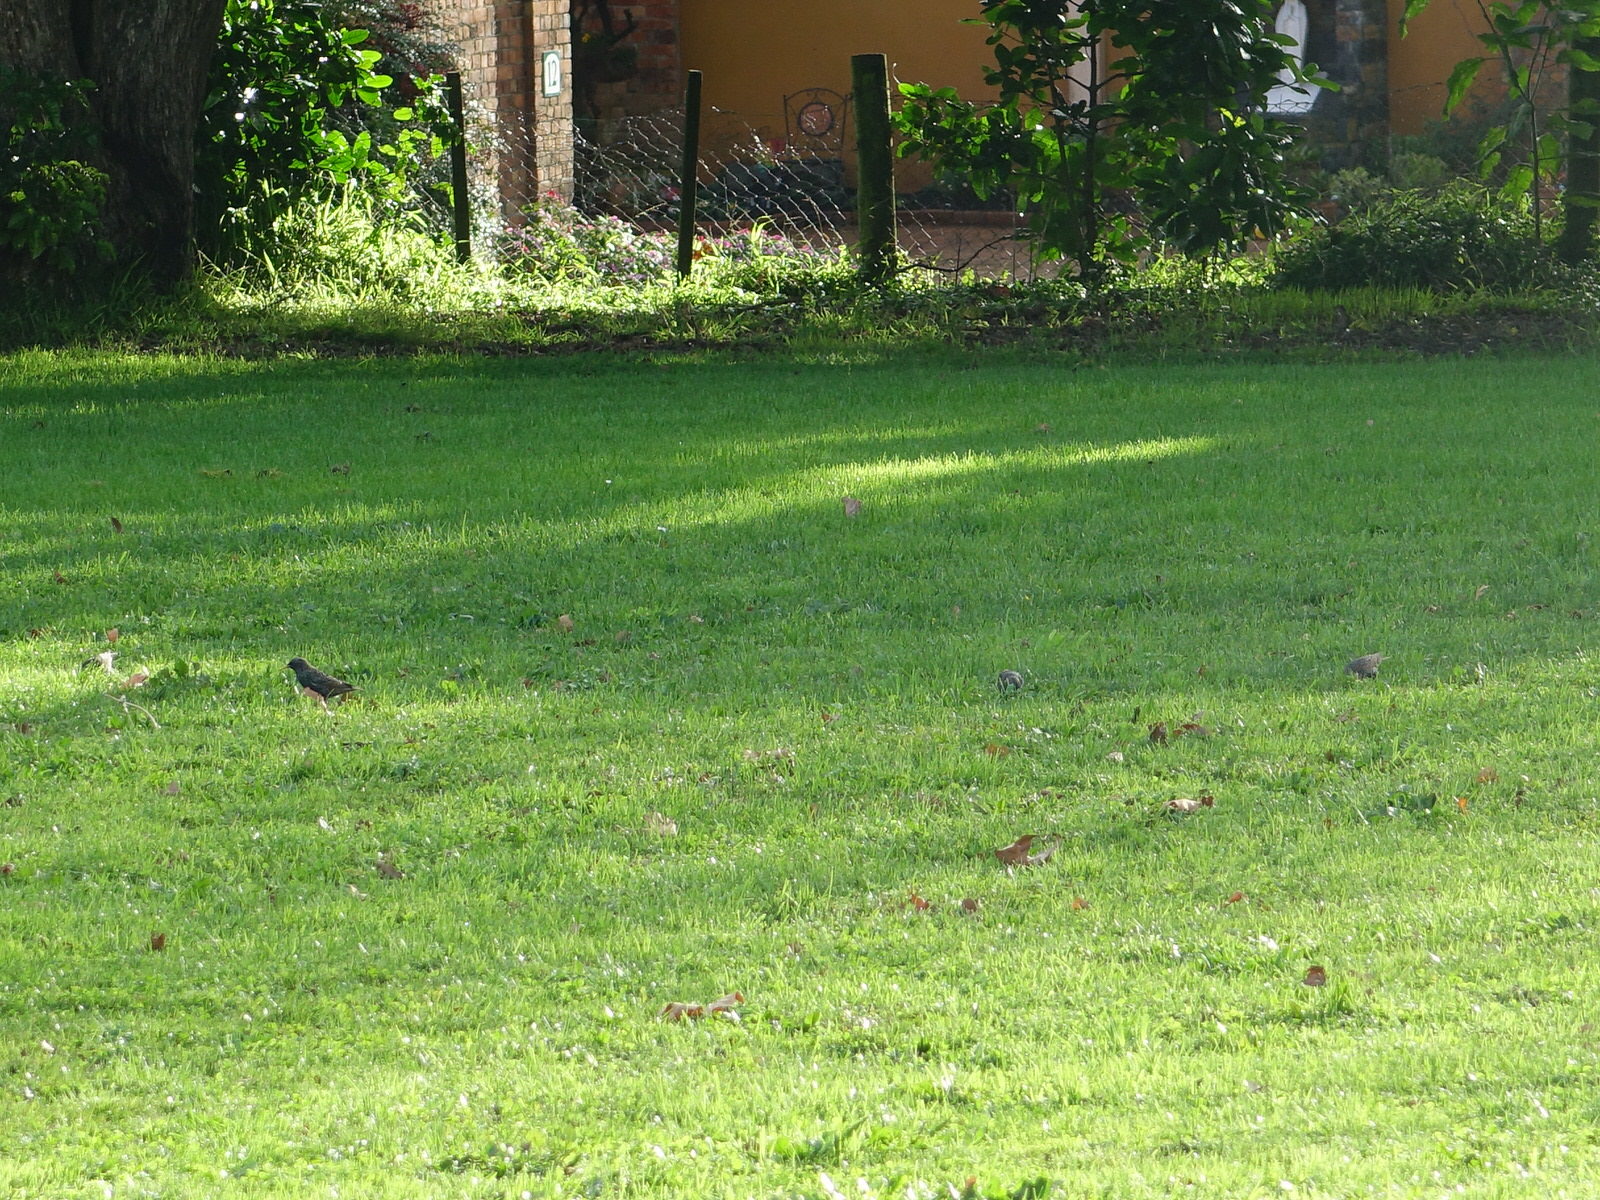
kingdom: Animalia
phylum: Chordata
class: Aves
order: Passeriformes
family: Sturnidae
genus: Sturnus
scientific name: Sturnus vulgaris
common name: Common starling
